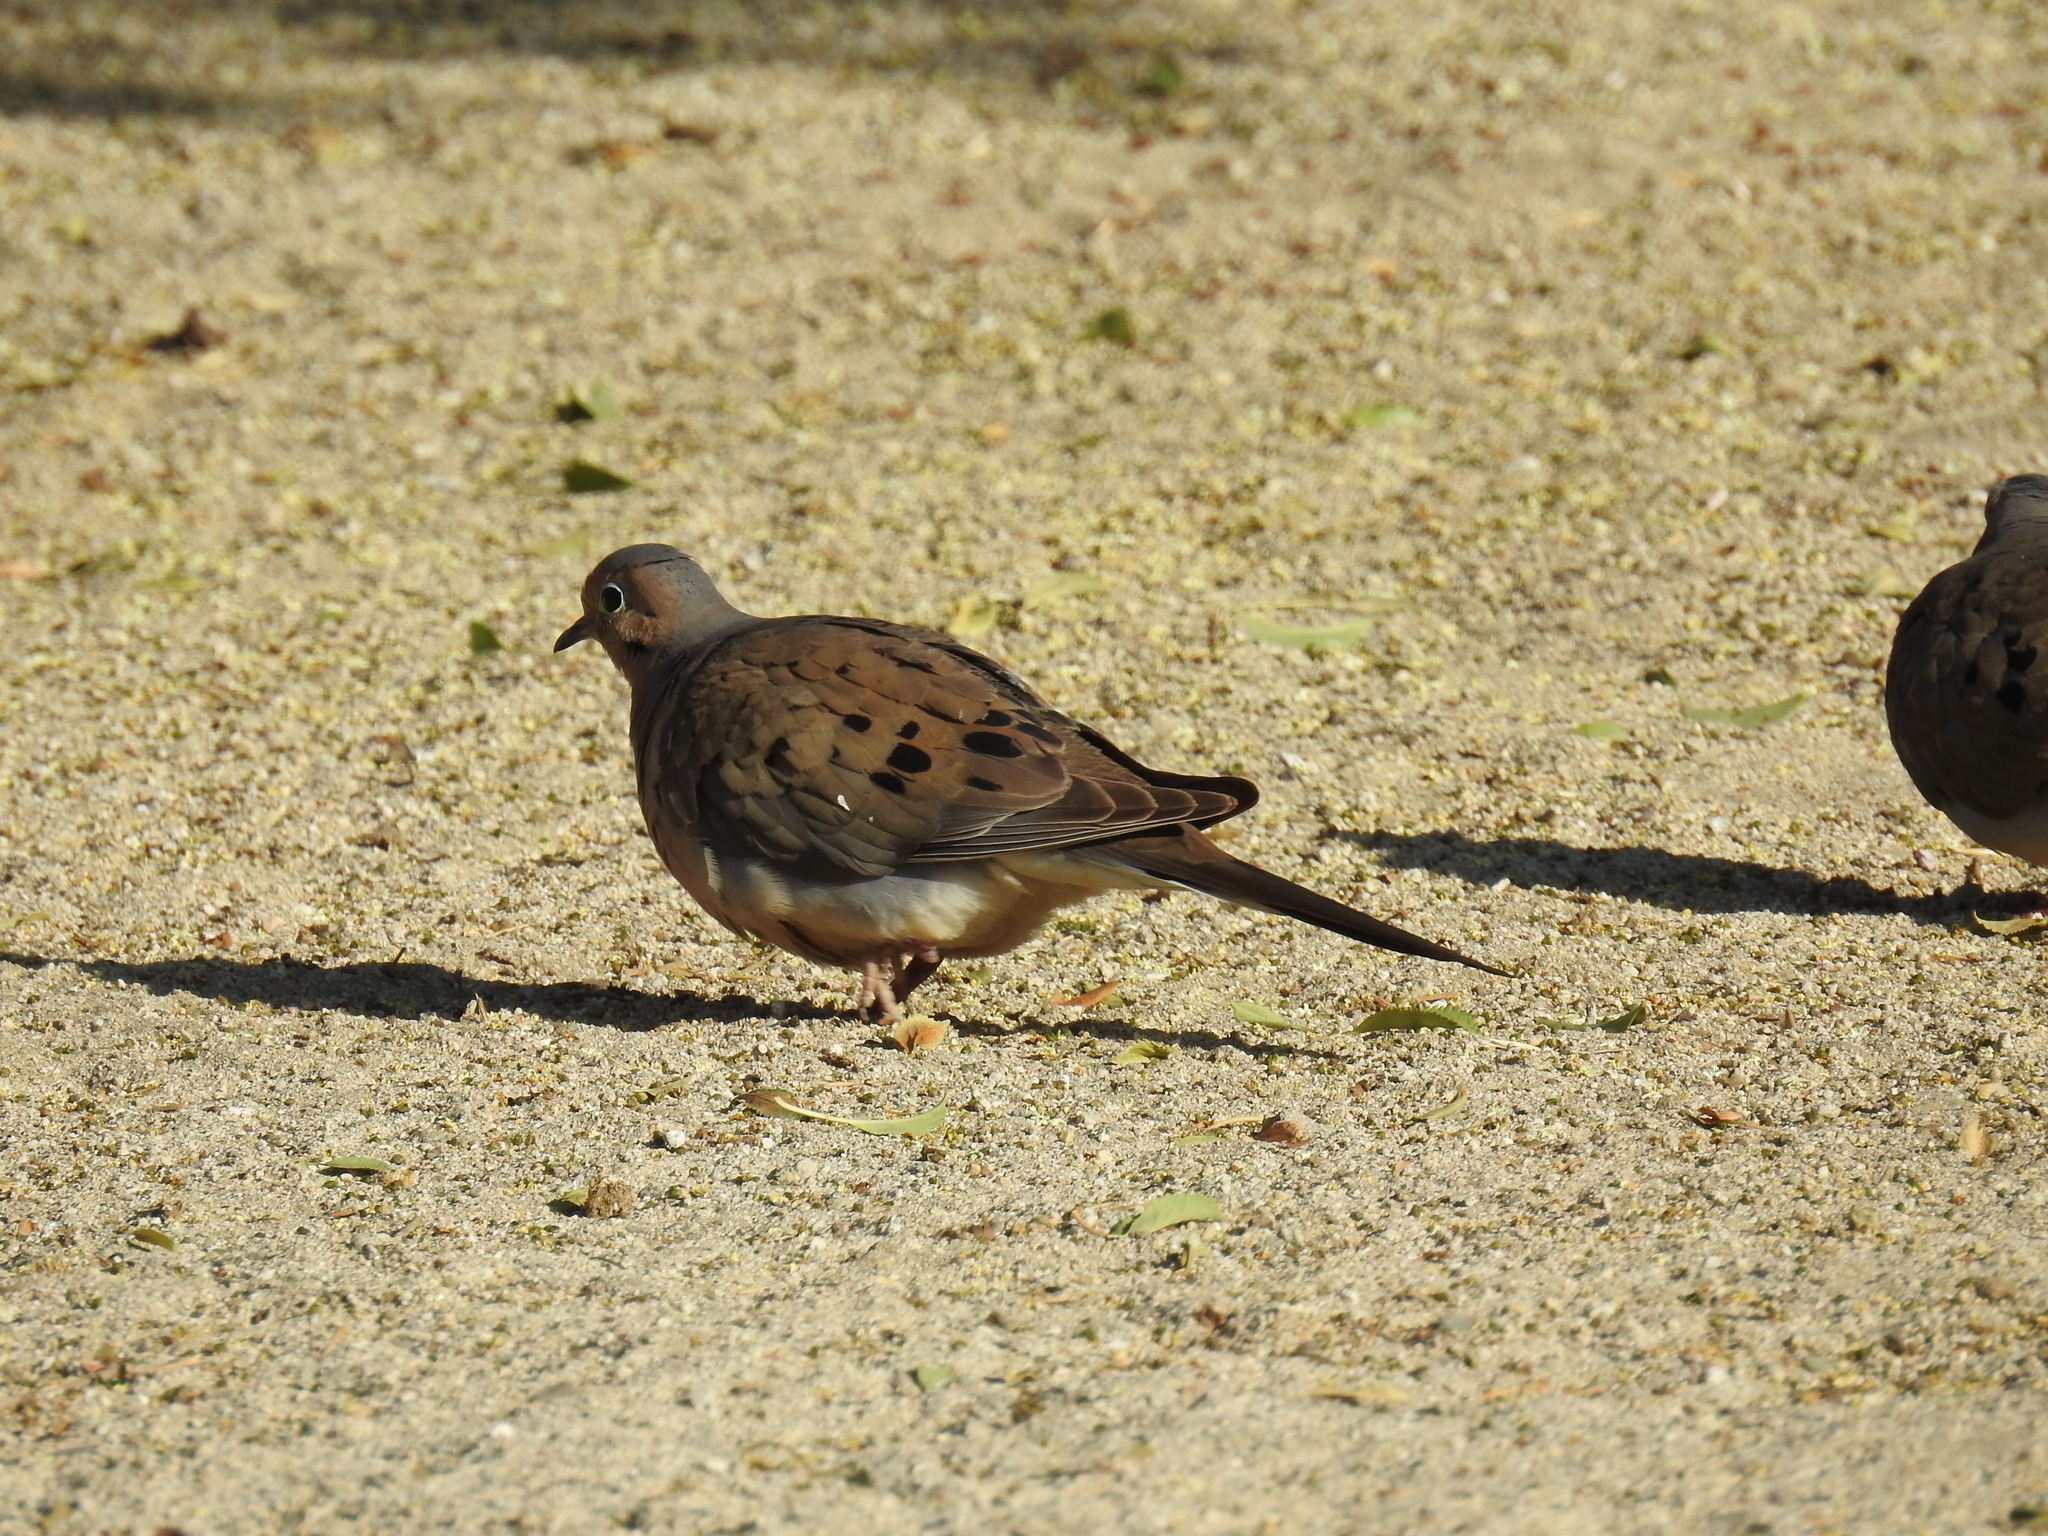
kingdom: Animalia
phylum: Chordata
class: Aves
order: Columbiformes
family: Columbidae
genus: Zenaida
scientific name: Zenaida macroura
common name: Mourning dove
